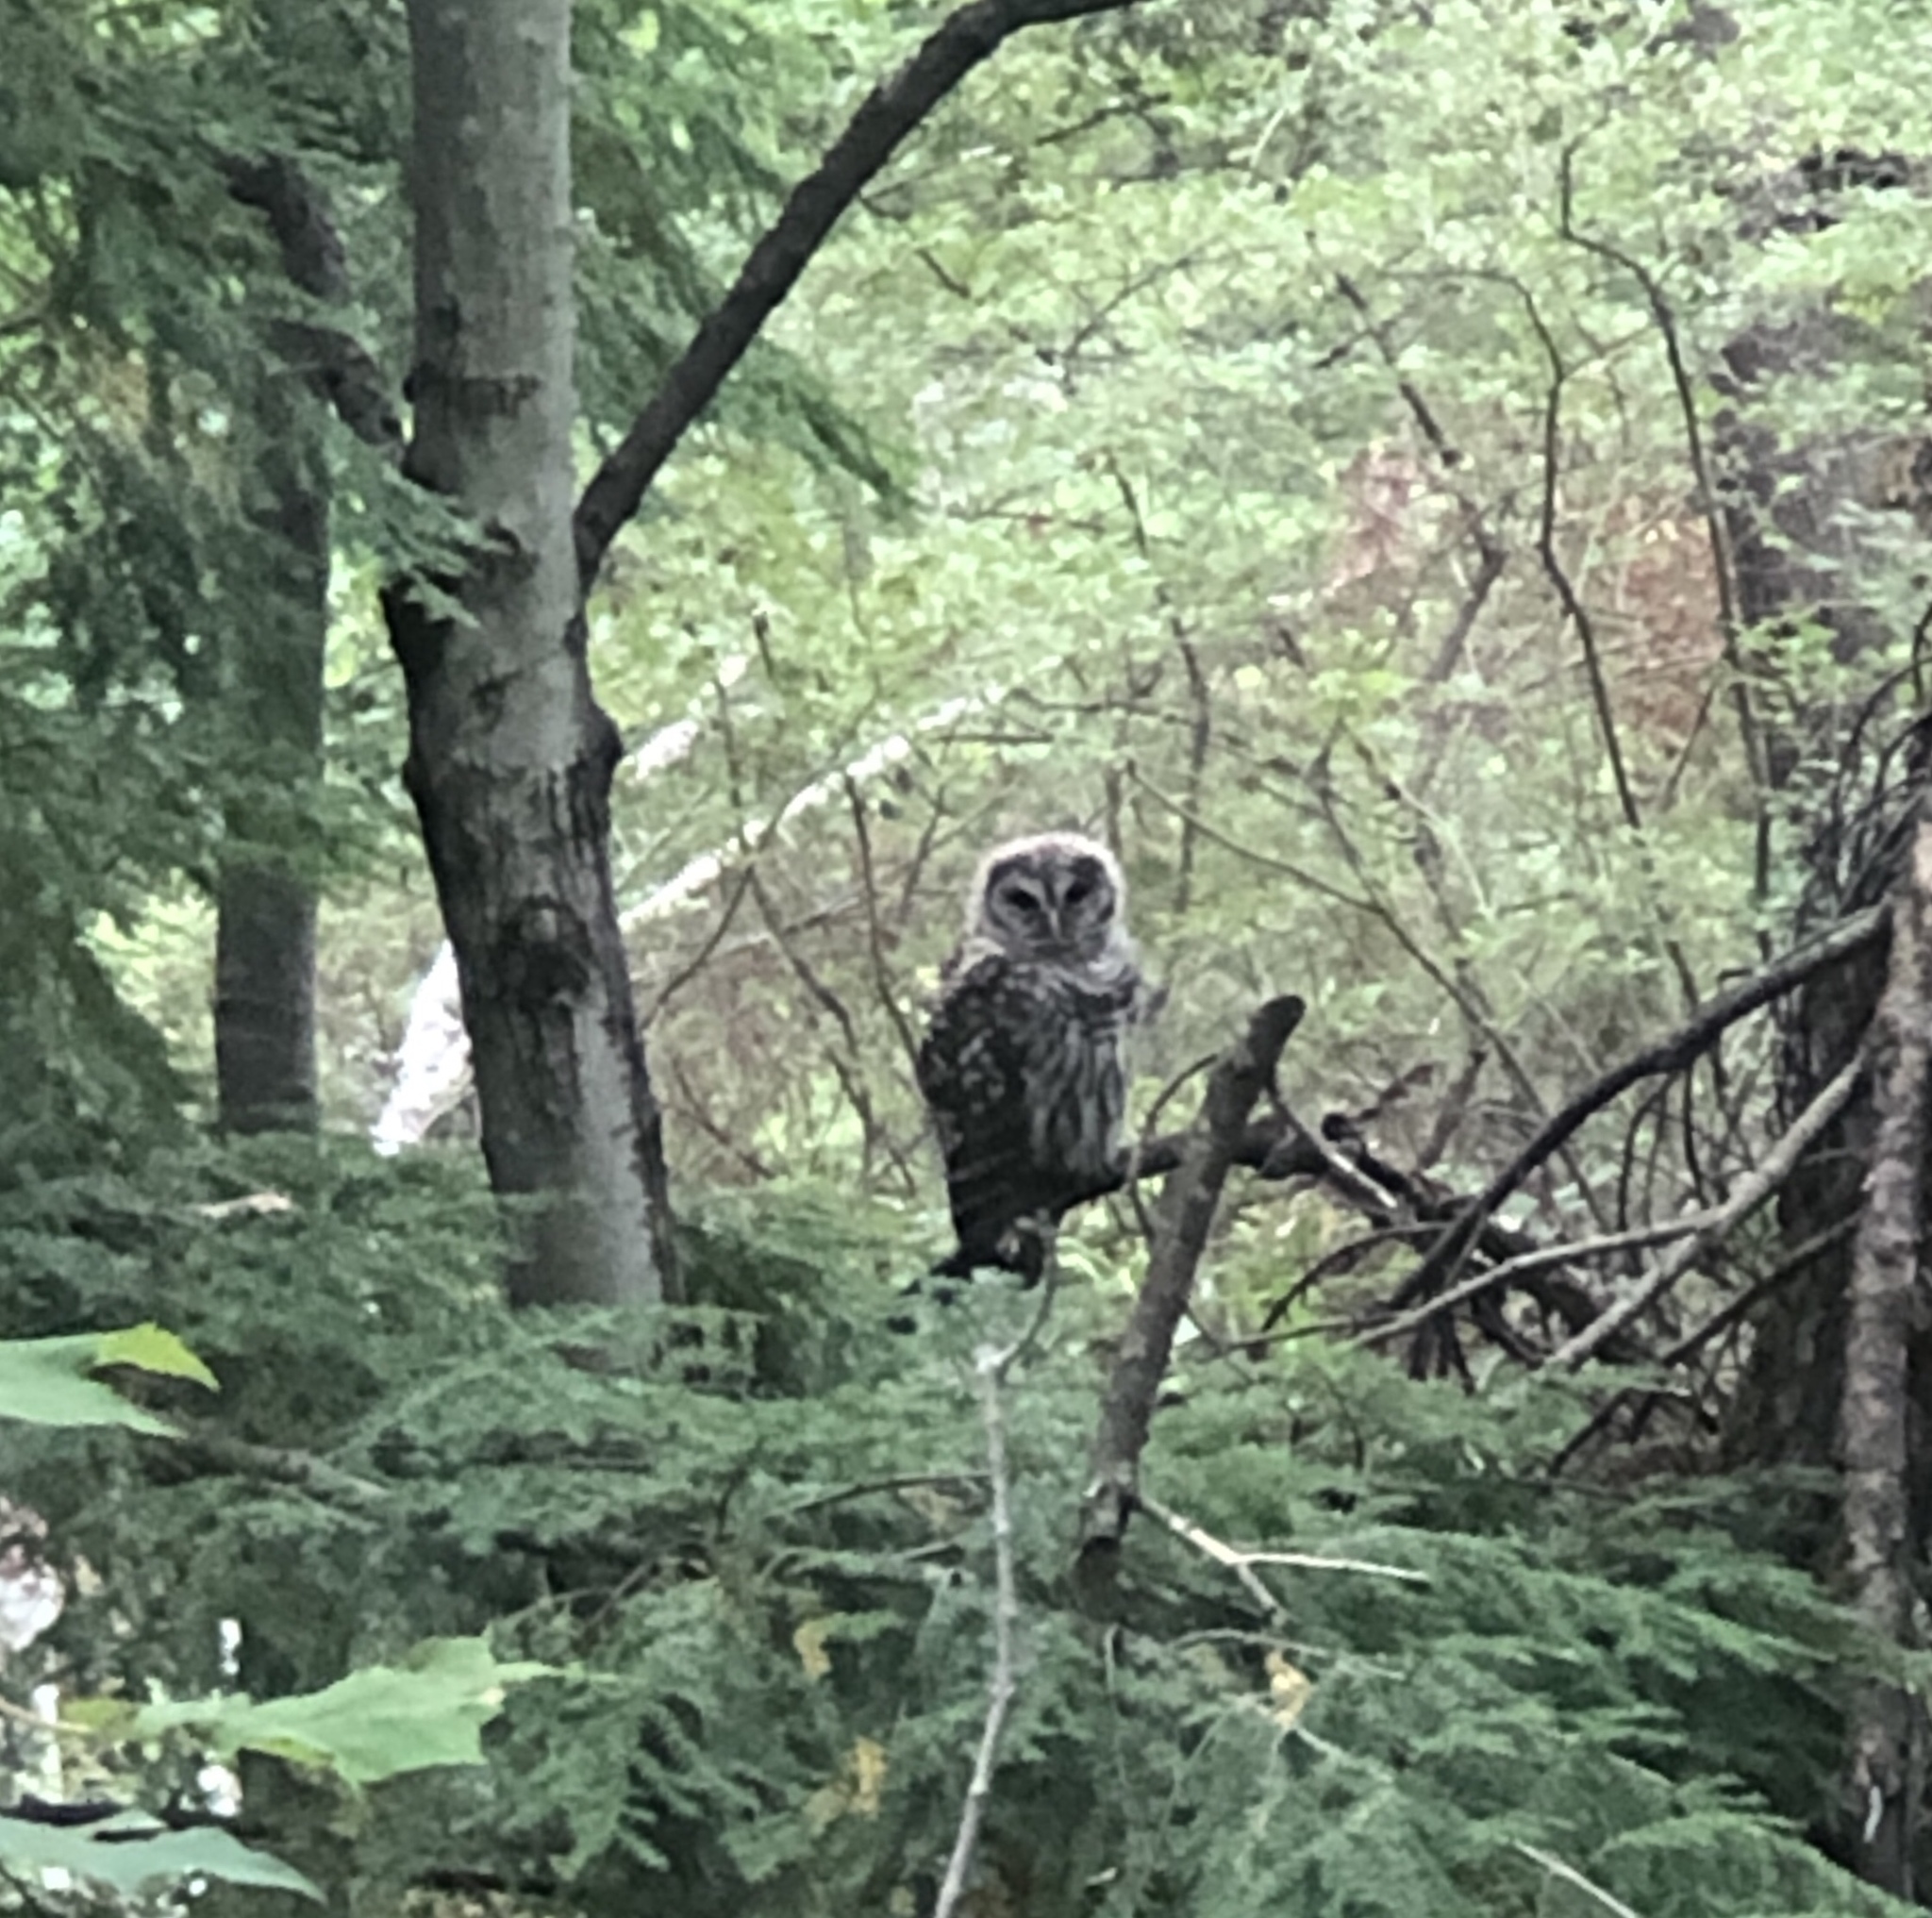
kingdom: Animalia
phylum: Chordata
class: Aves
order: Strigiformes
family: Strigidae
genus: Strix
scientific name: Strix varia
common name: Barred owl
